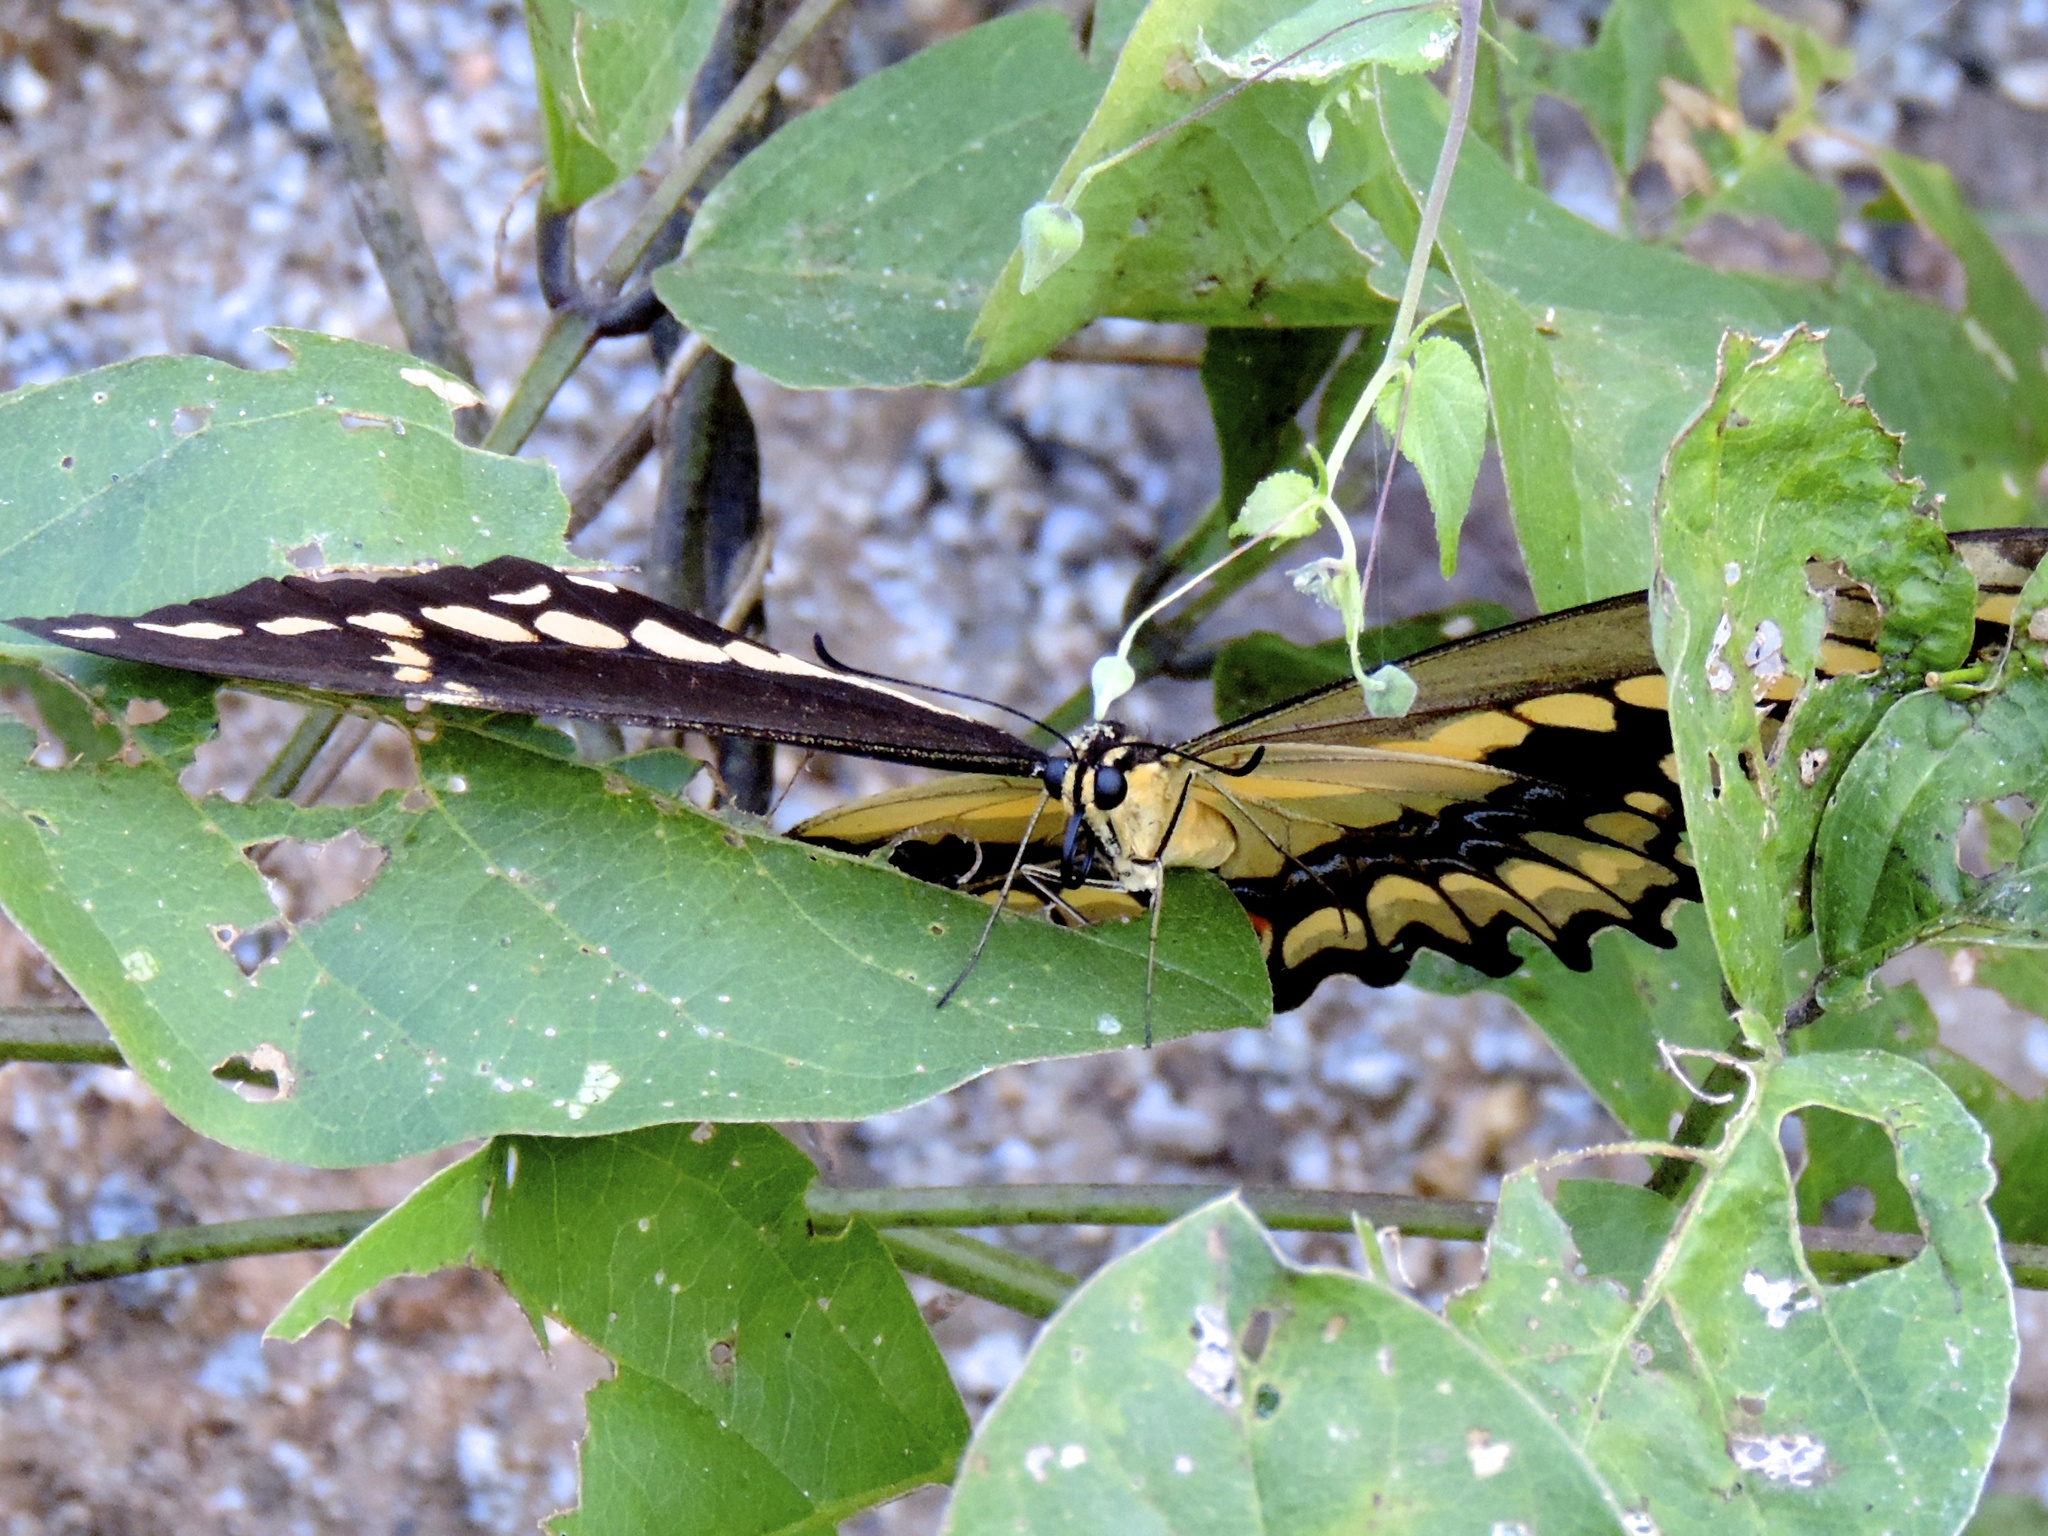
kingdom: Animalia
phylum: Arthropoda
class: Insecta
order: Lepidoptera
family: Papilionidae
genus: Papilio
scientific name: Papilio rumiko
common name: Western giant swallowtail
